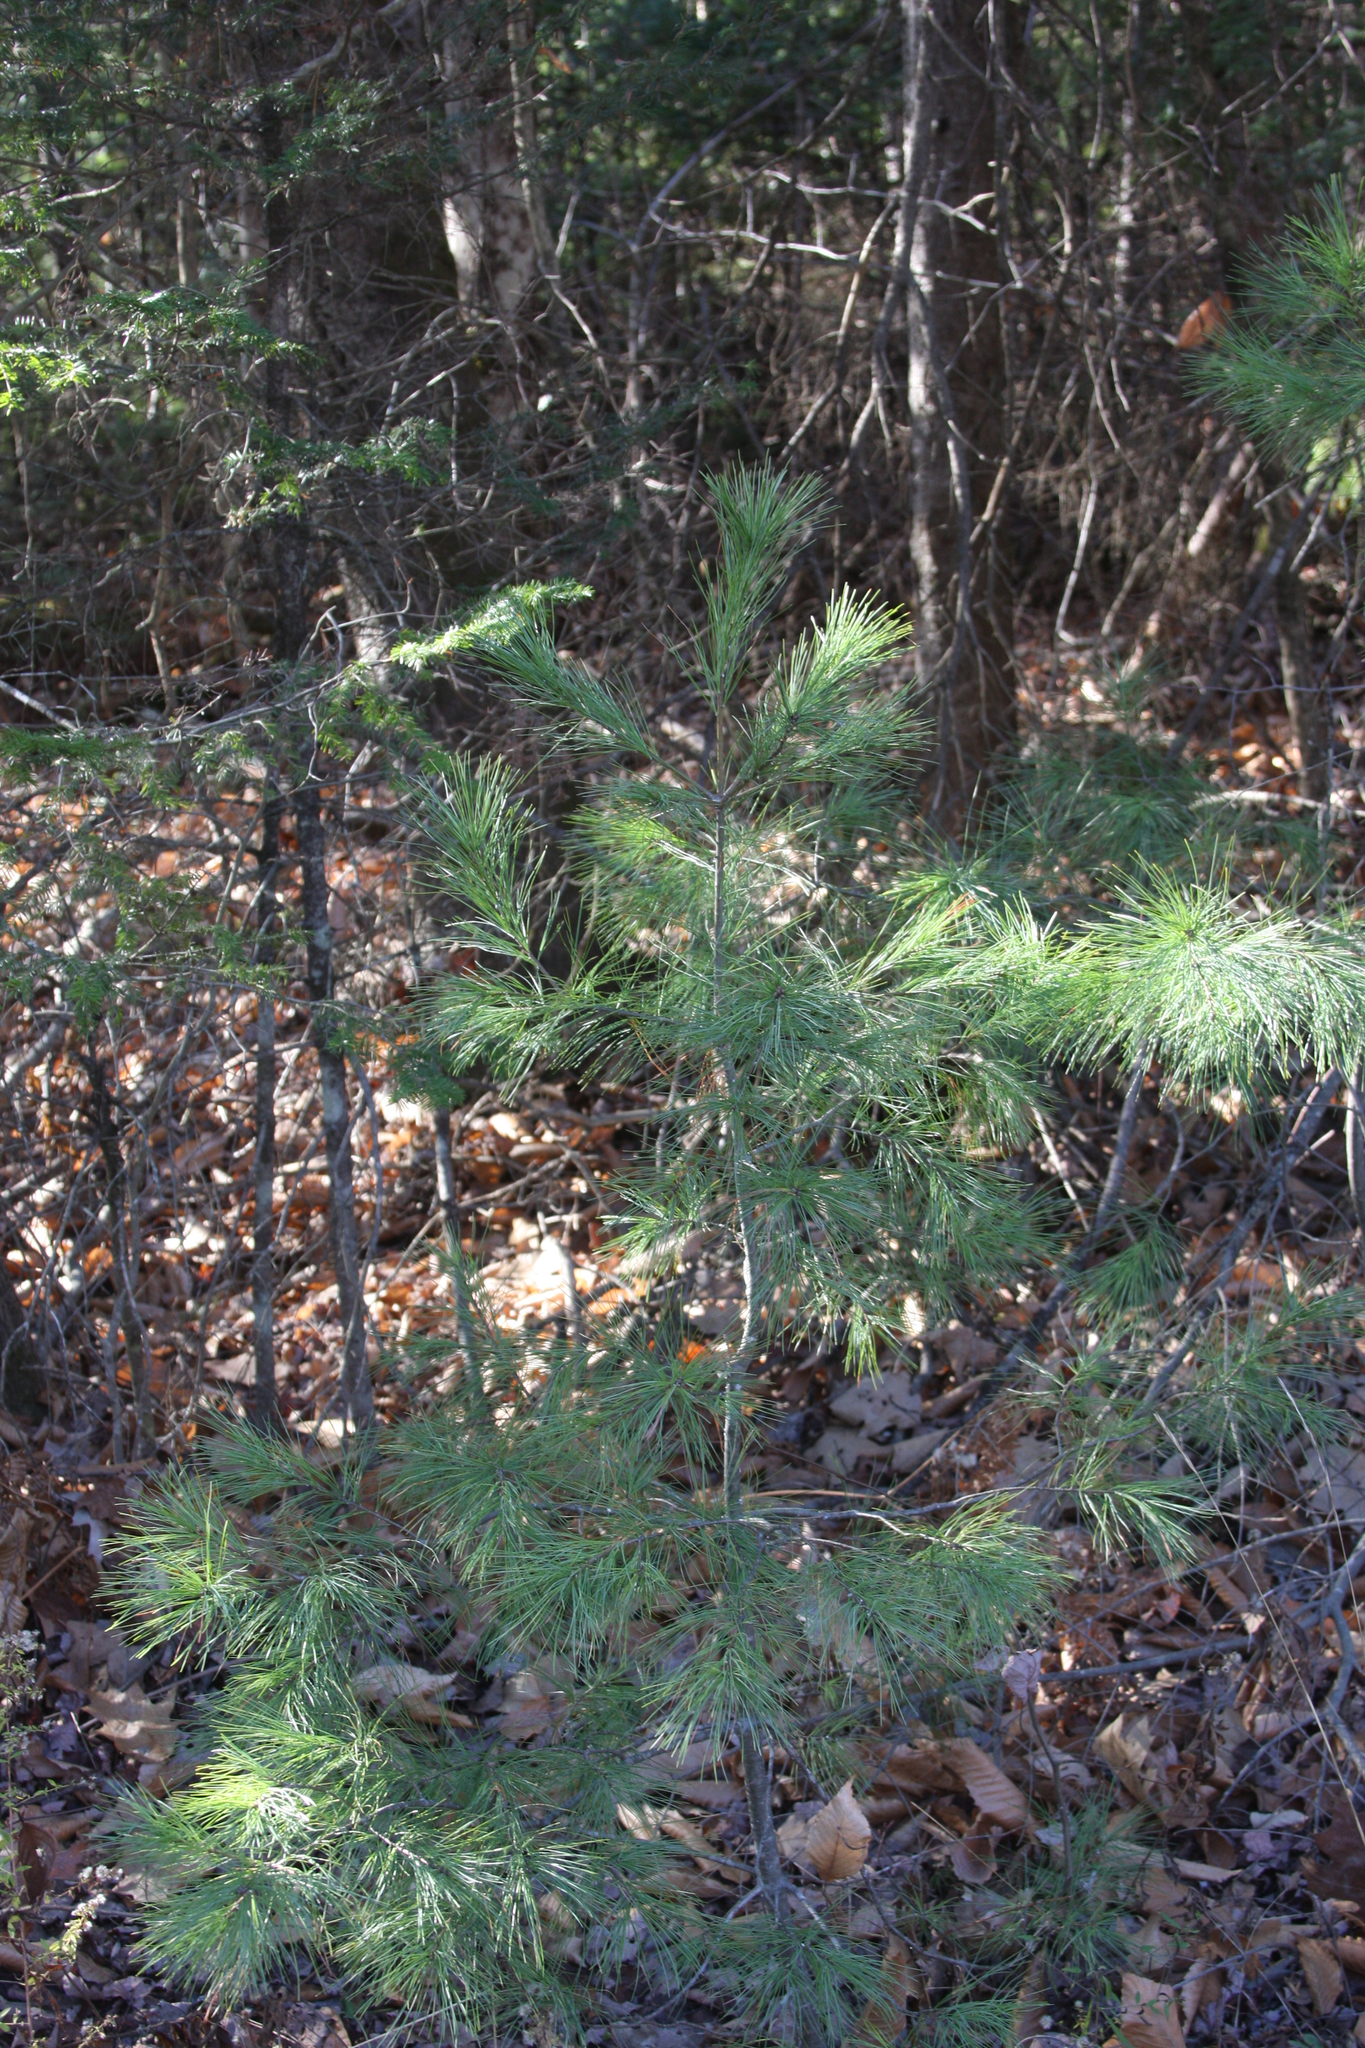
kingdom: Plantae
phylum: Tracheophyta
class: Pinopsida
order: Pinales
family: Pinaceae
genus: Pinus
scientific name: Pinus strobus
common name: Weymouth pine
